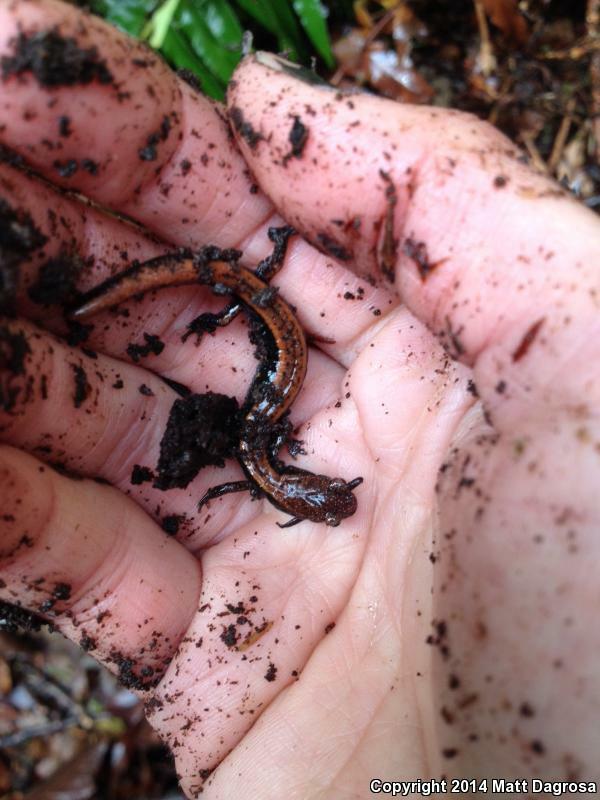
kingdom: Animalia
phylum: Chordata
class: Amphibia
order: Caudata
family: Plethodontidae
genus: Plethodon
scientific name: Plethodon vehiculum
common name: Western red-backed salamander
